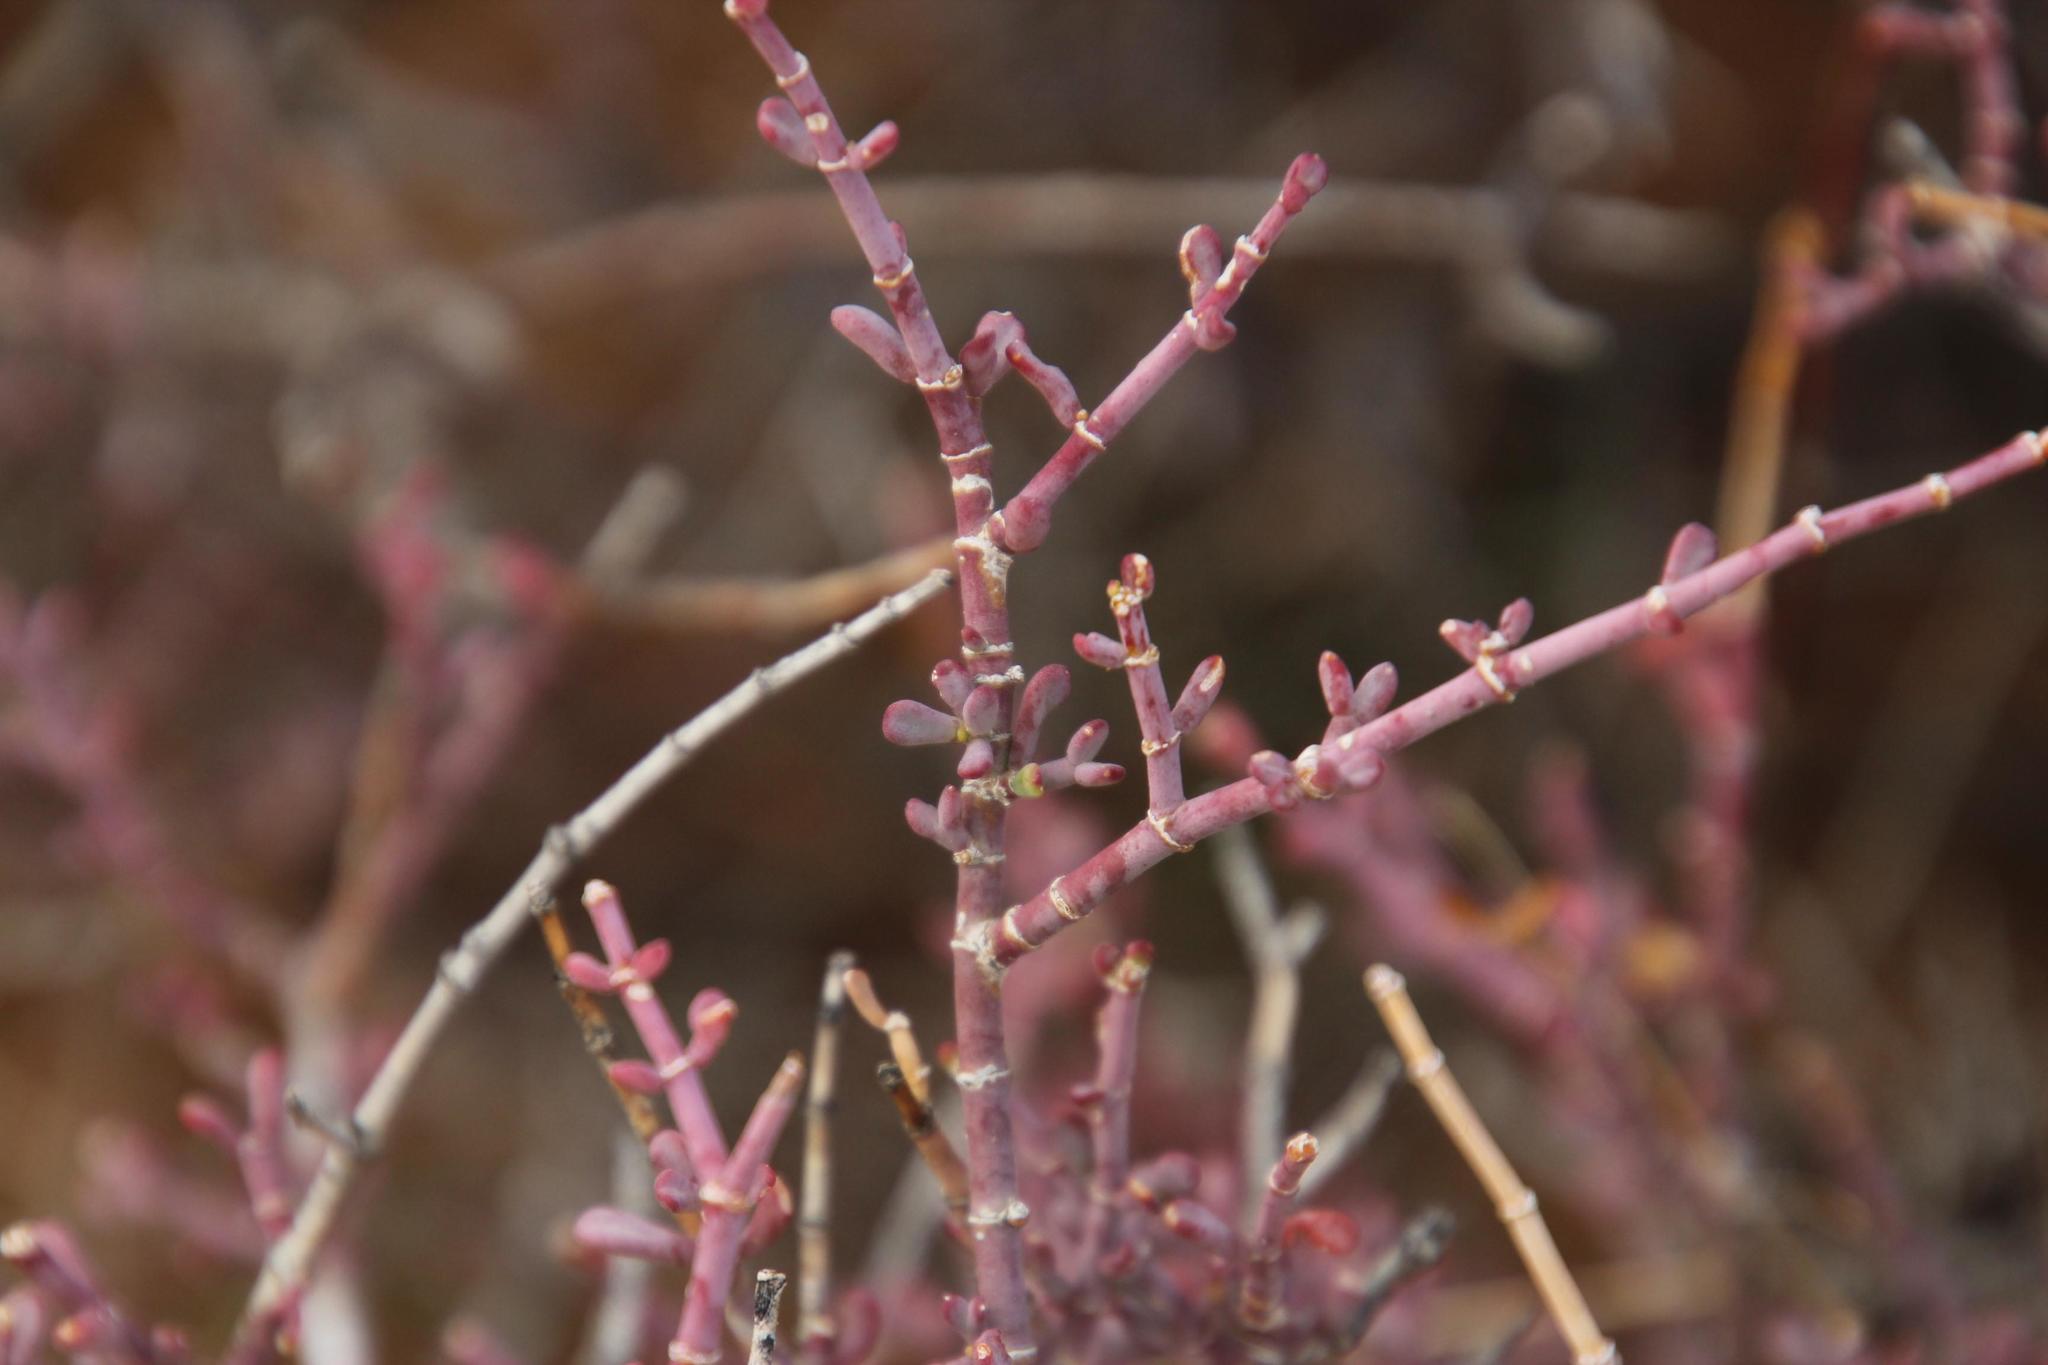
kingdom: Plantae
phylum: Tracheophyta
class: Magnoliopsida
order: Zygophyllales
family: Zygophyllaceae
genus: Tetraena
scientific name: Tetraena chrysopteros
